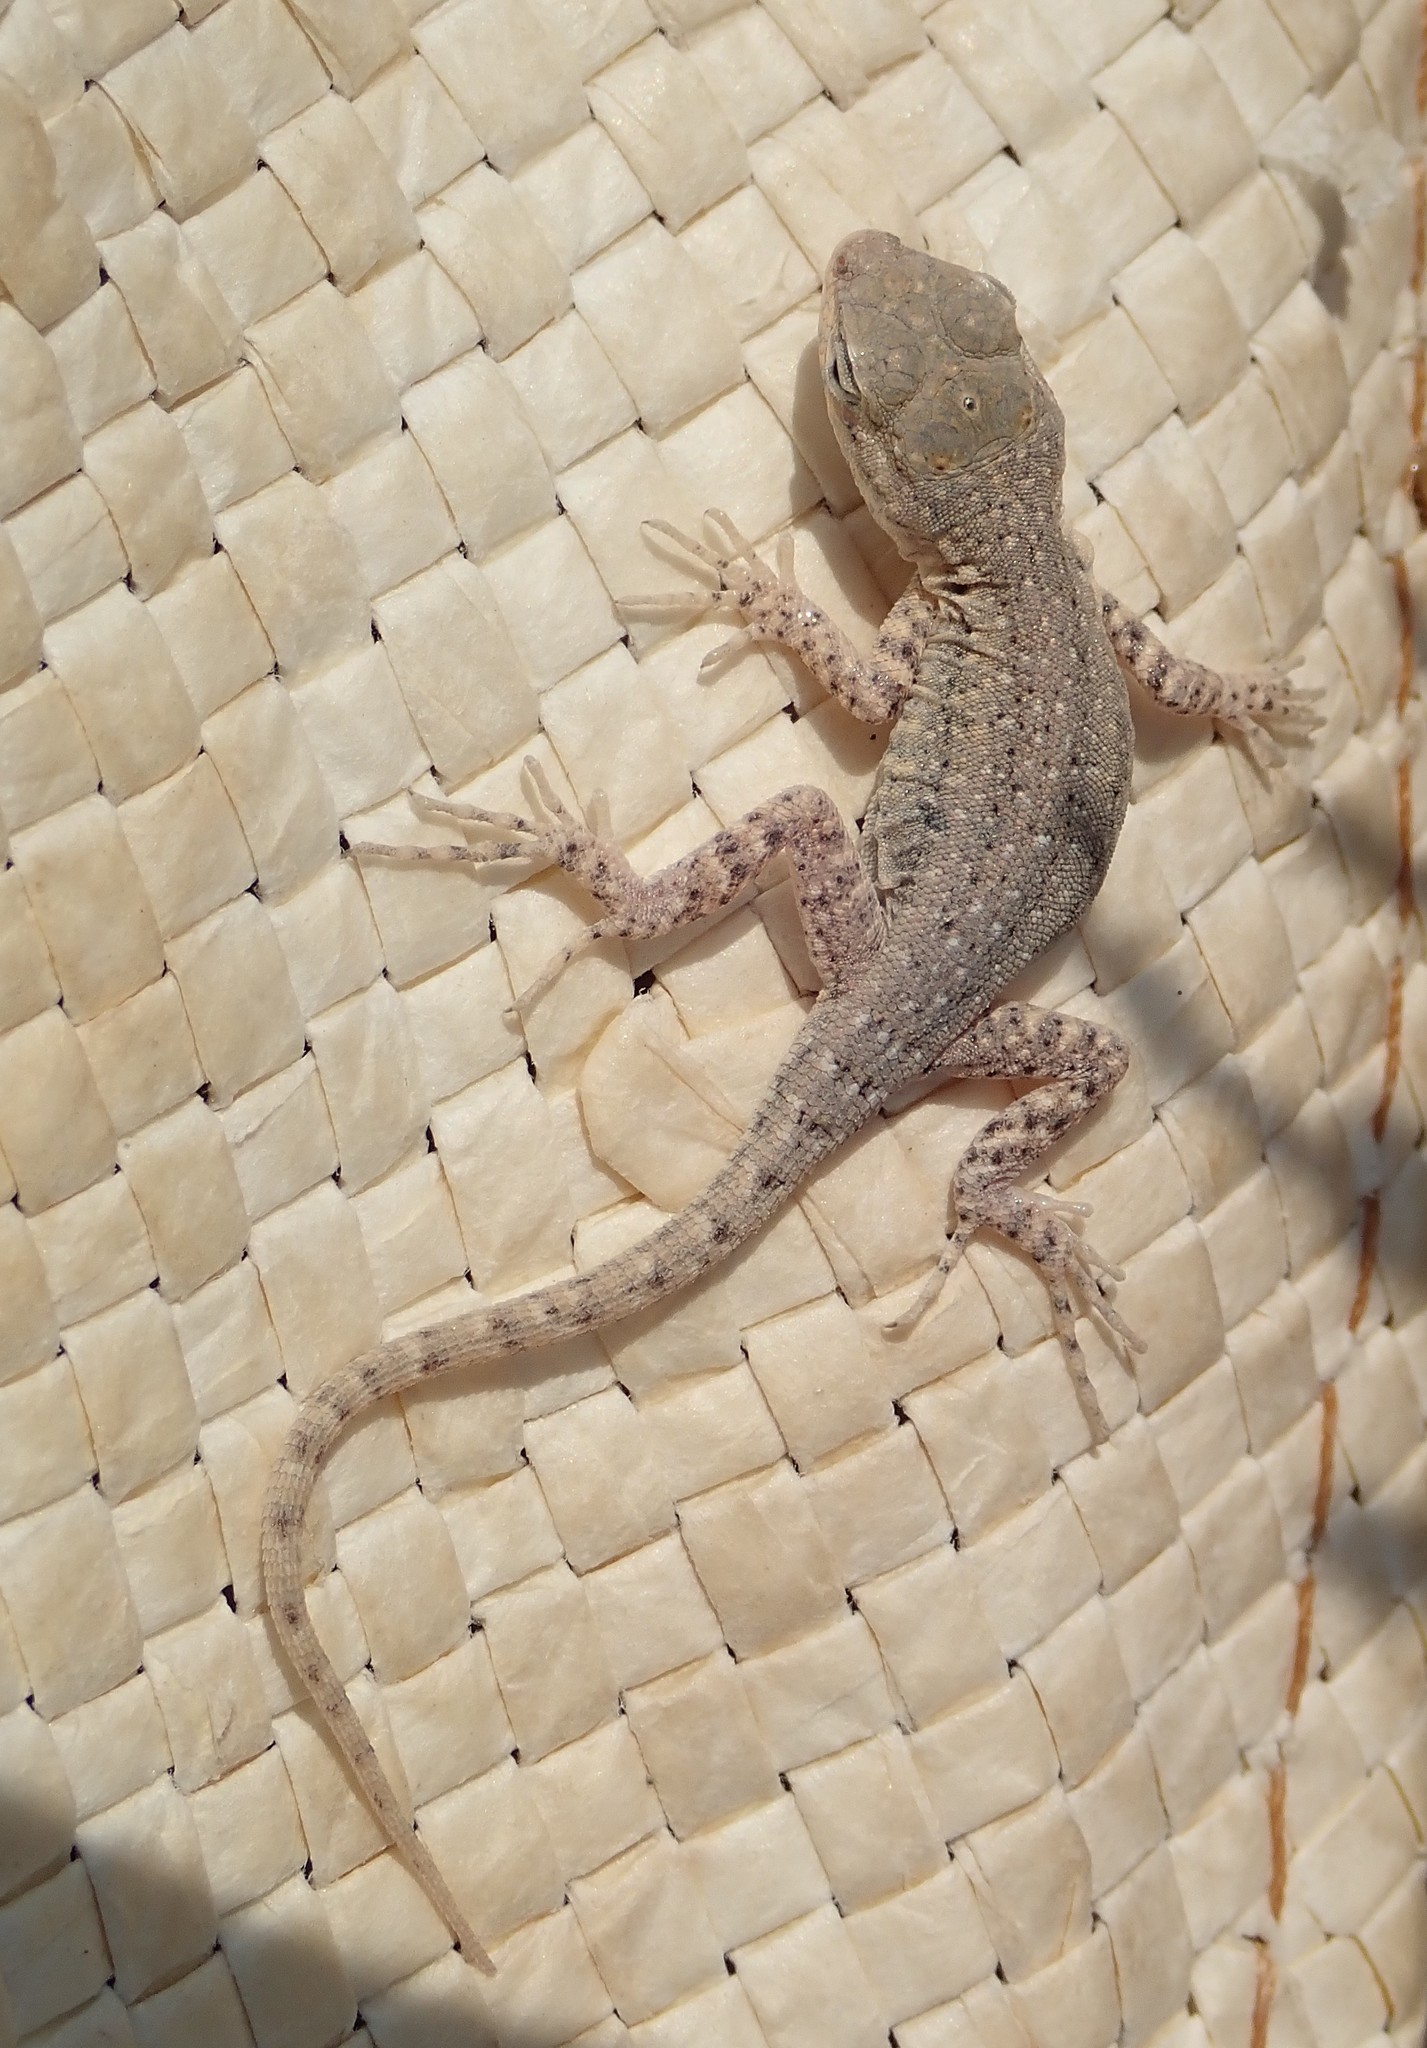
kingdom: Animalia
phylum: Chordata
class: Squamata
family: Phrynosomatidae
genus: Uta
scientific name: Uta stansburiana
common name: Side-blotched lizard
